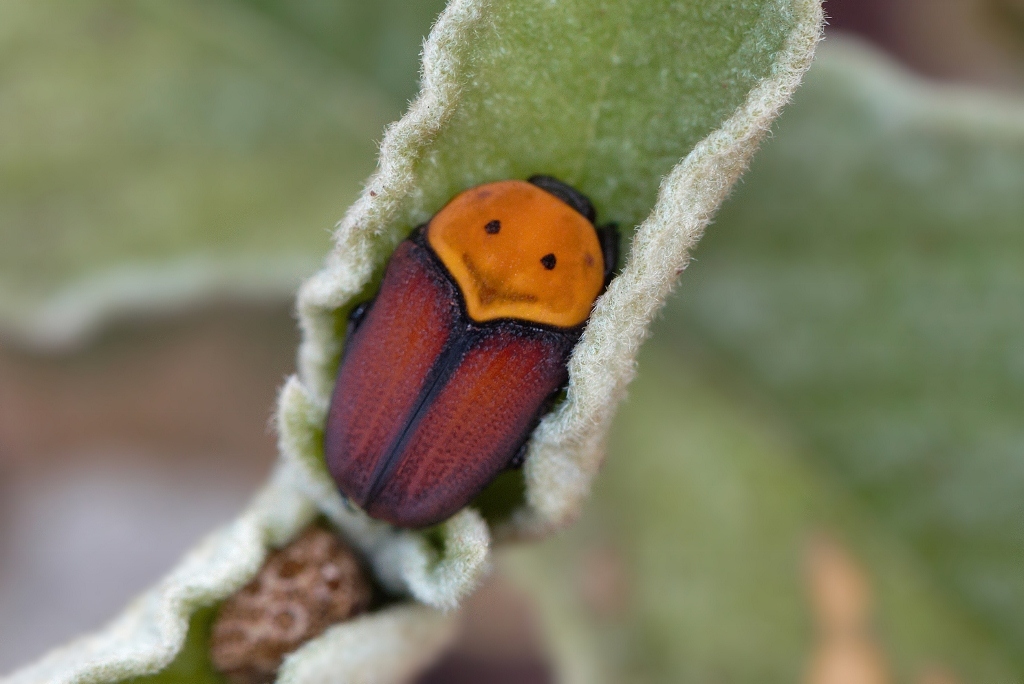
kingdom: Animalia
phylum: Arthropoda
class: Insecta
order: Coleoptera
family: Scarabaeidae
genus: Pseudoclinteria
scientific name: Pseudoclinteria infuscata
